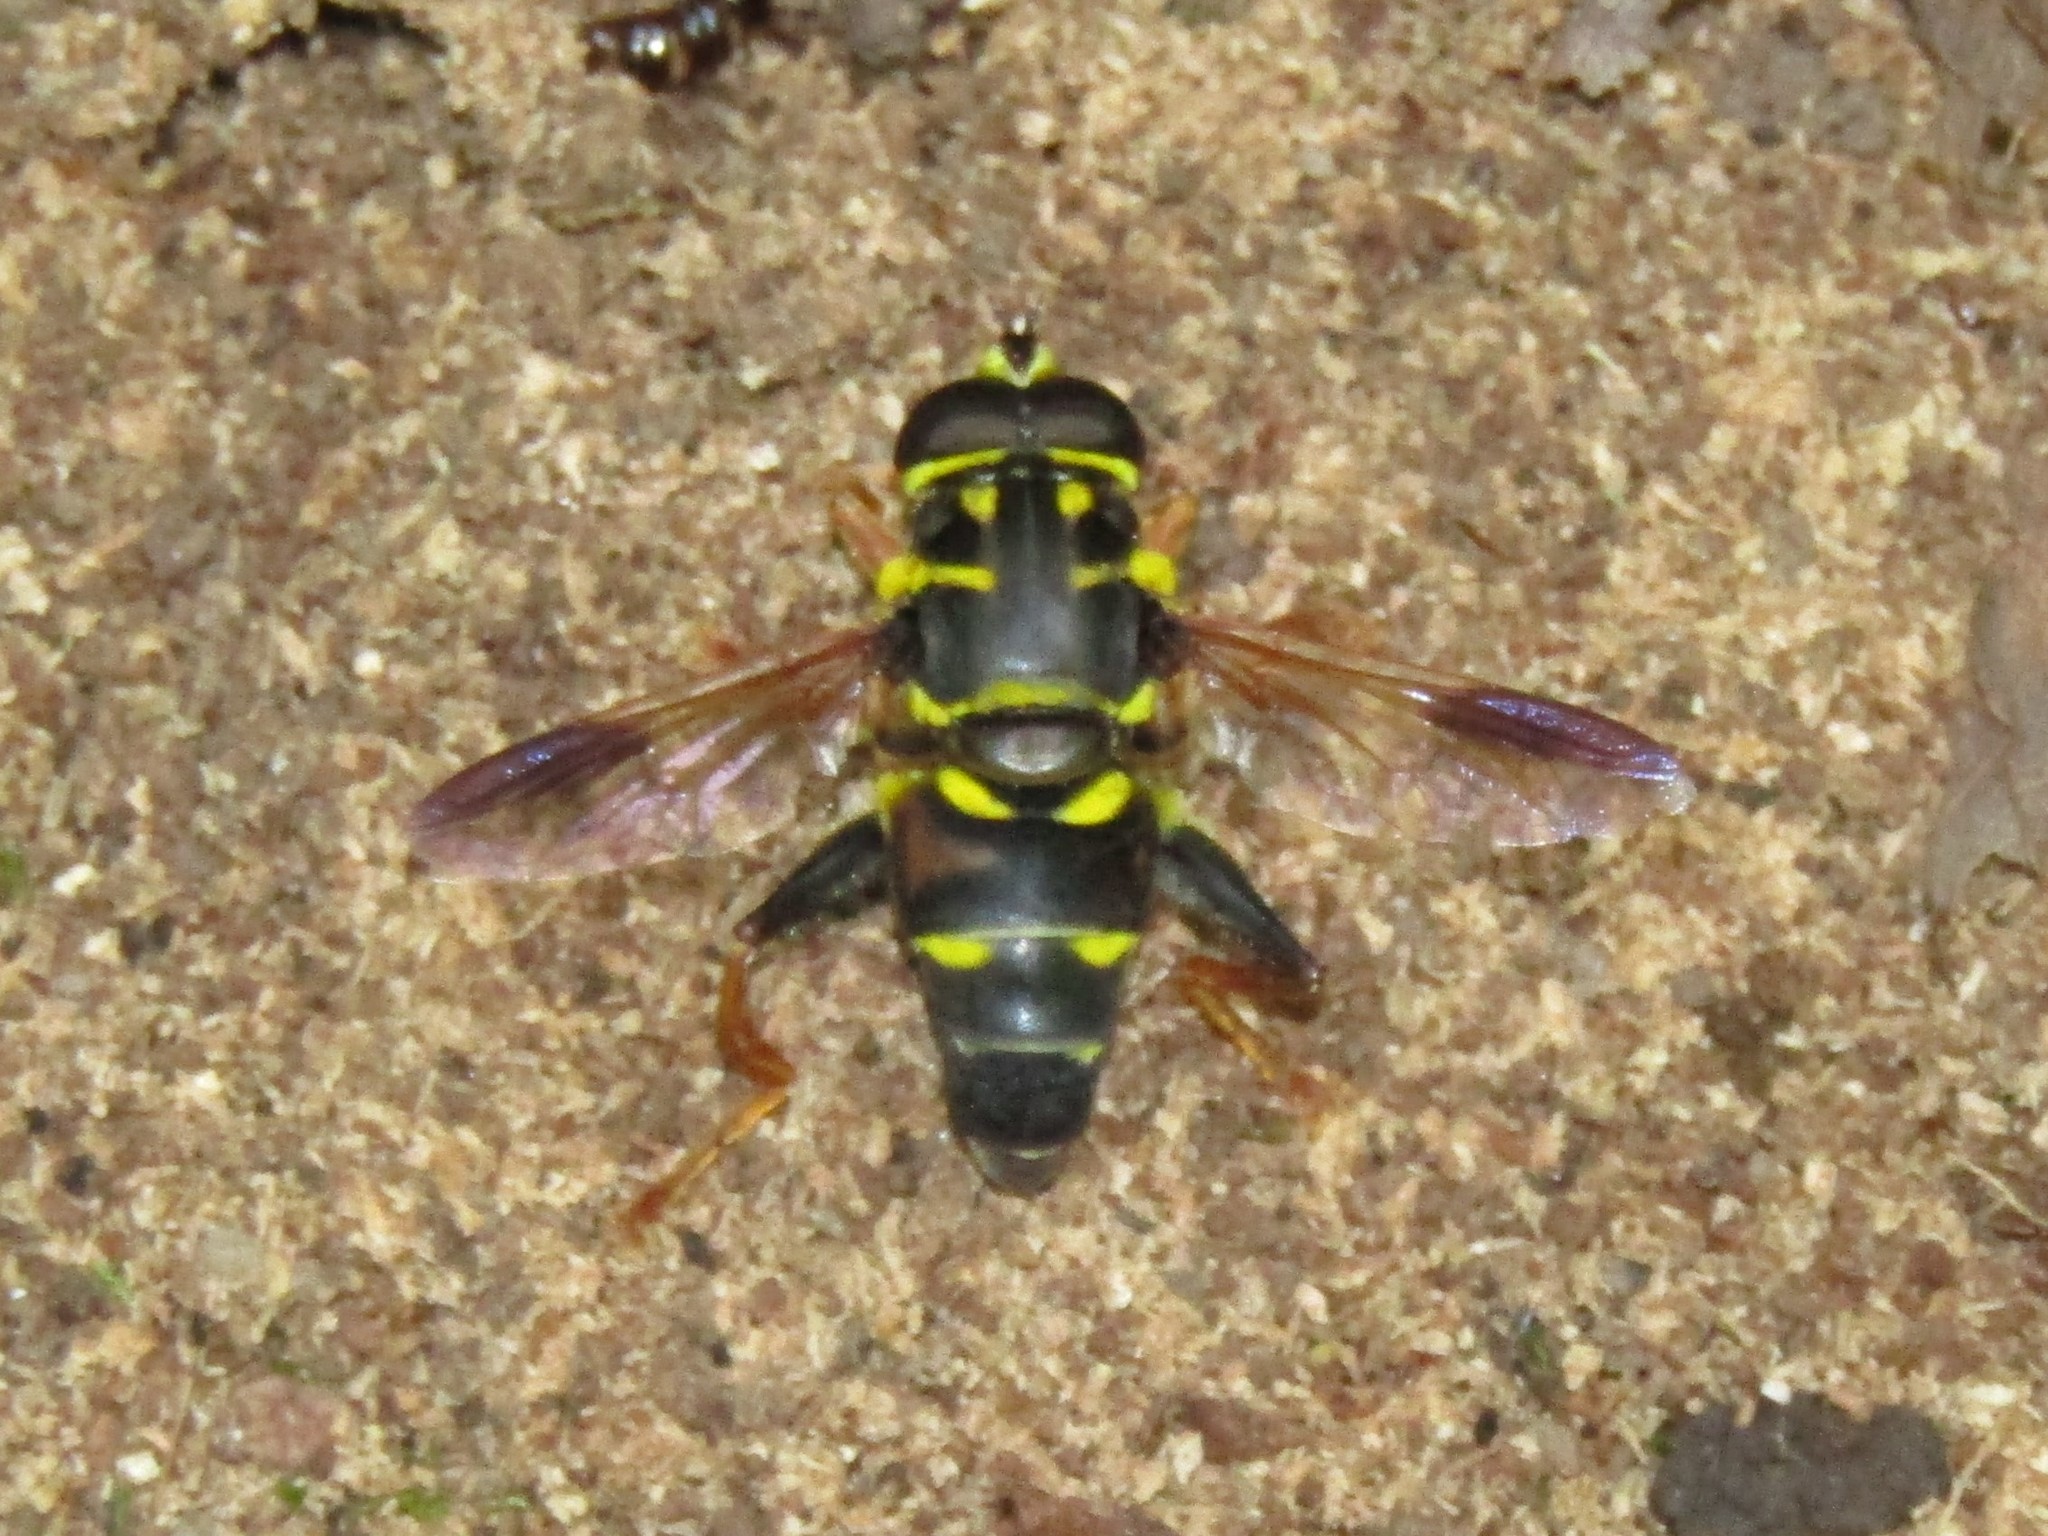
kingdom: Animalia
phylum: Arthropoda
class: Insecta
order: Diptera
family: Syrphidae
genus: Meromacrus
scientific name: Meromacrus acutus
